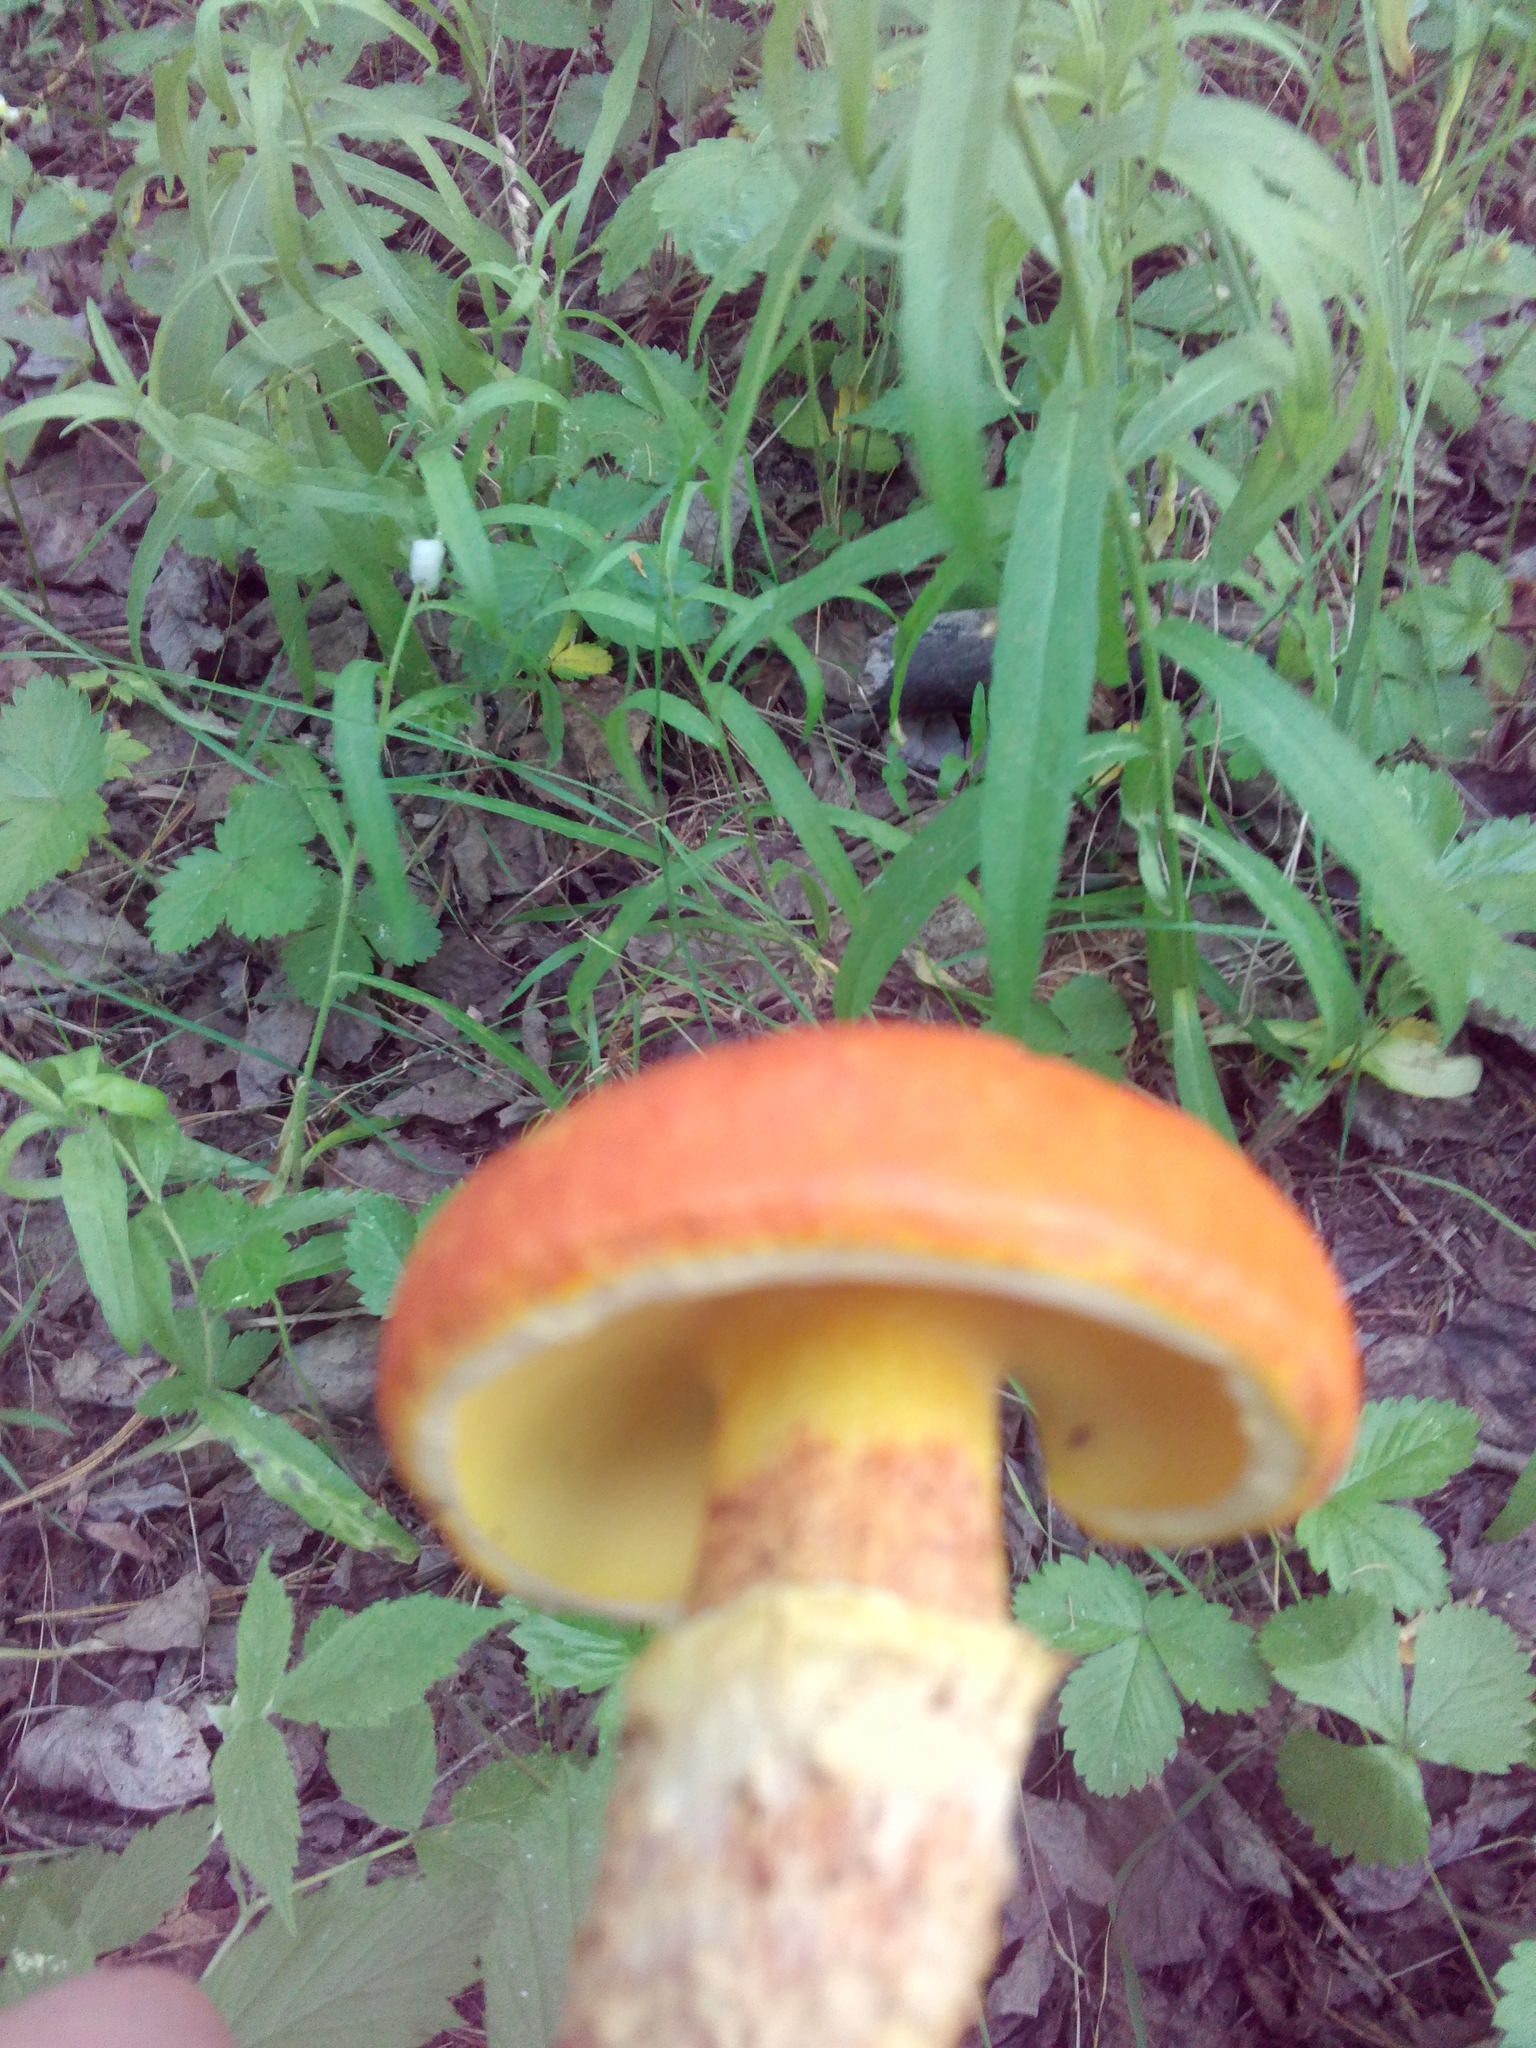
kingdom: Fungi
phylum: Basidiomycota
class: Agaricomycetes
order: Boletales
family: Suillaceae
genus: Suillus
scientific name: Suillus grevillei
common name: Larch bolete
